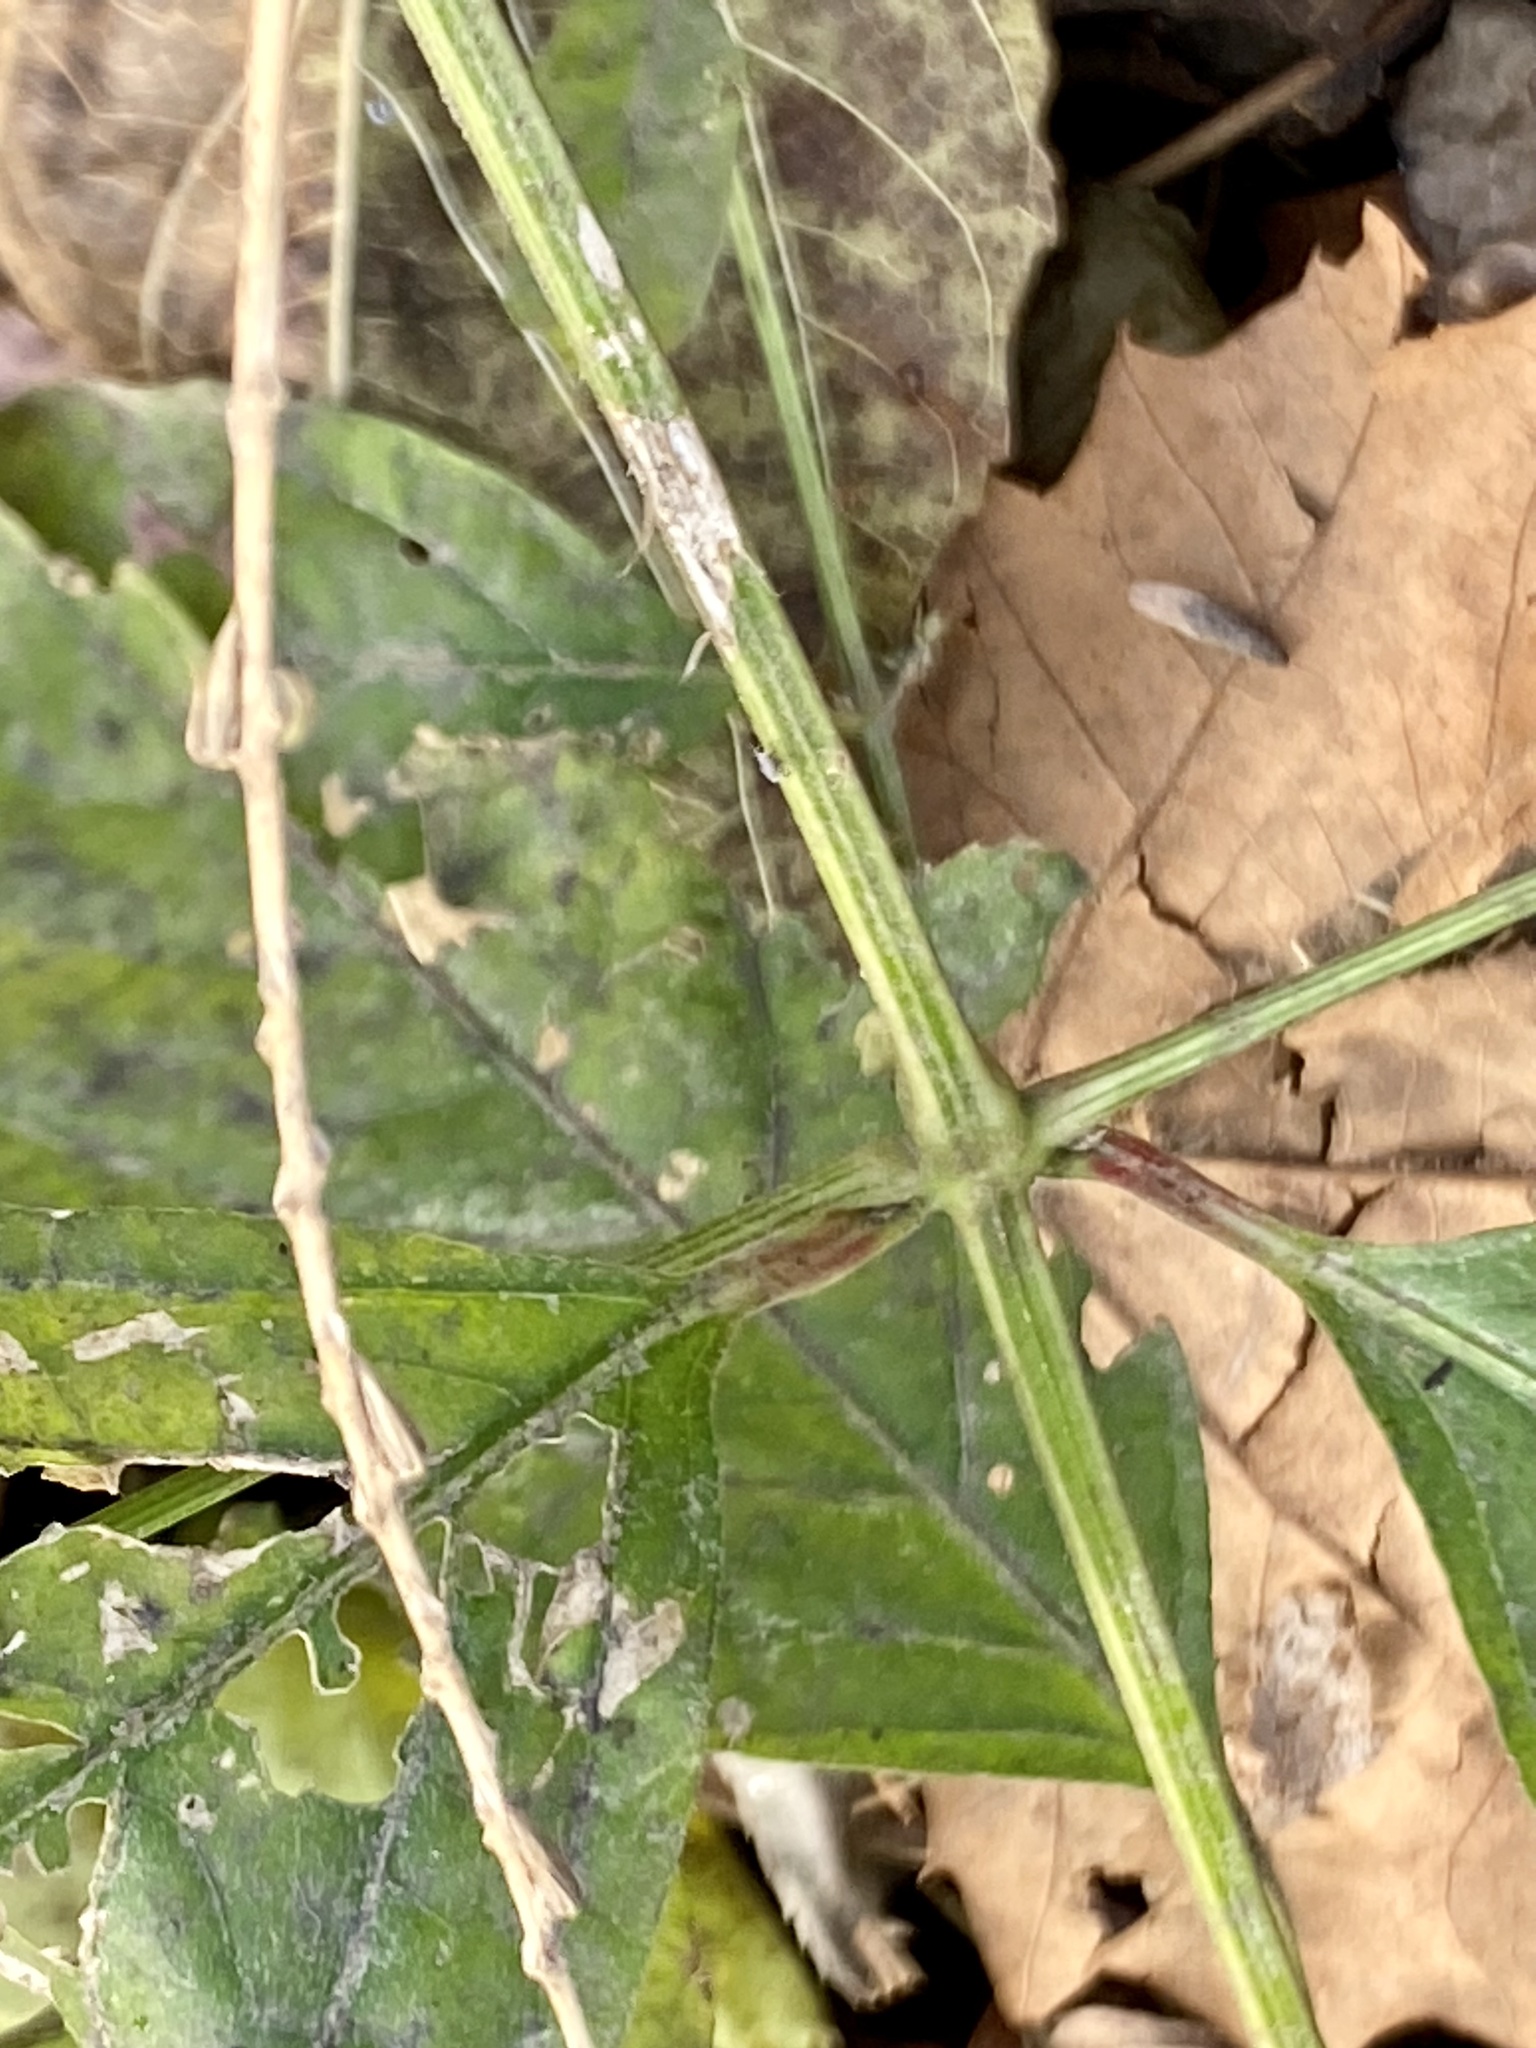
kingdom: Plantae
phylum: Tracheophyta
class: Magnoliopsida
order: Caryophyllales
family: Amaranthaceae
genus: Achyranthes
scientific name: Achyranthes bidentata
